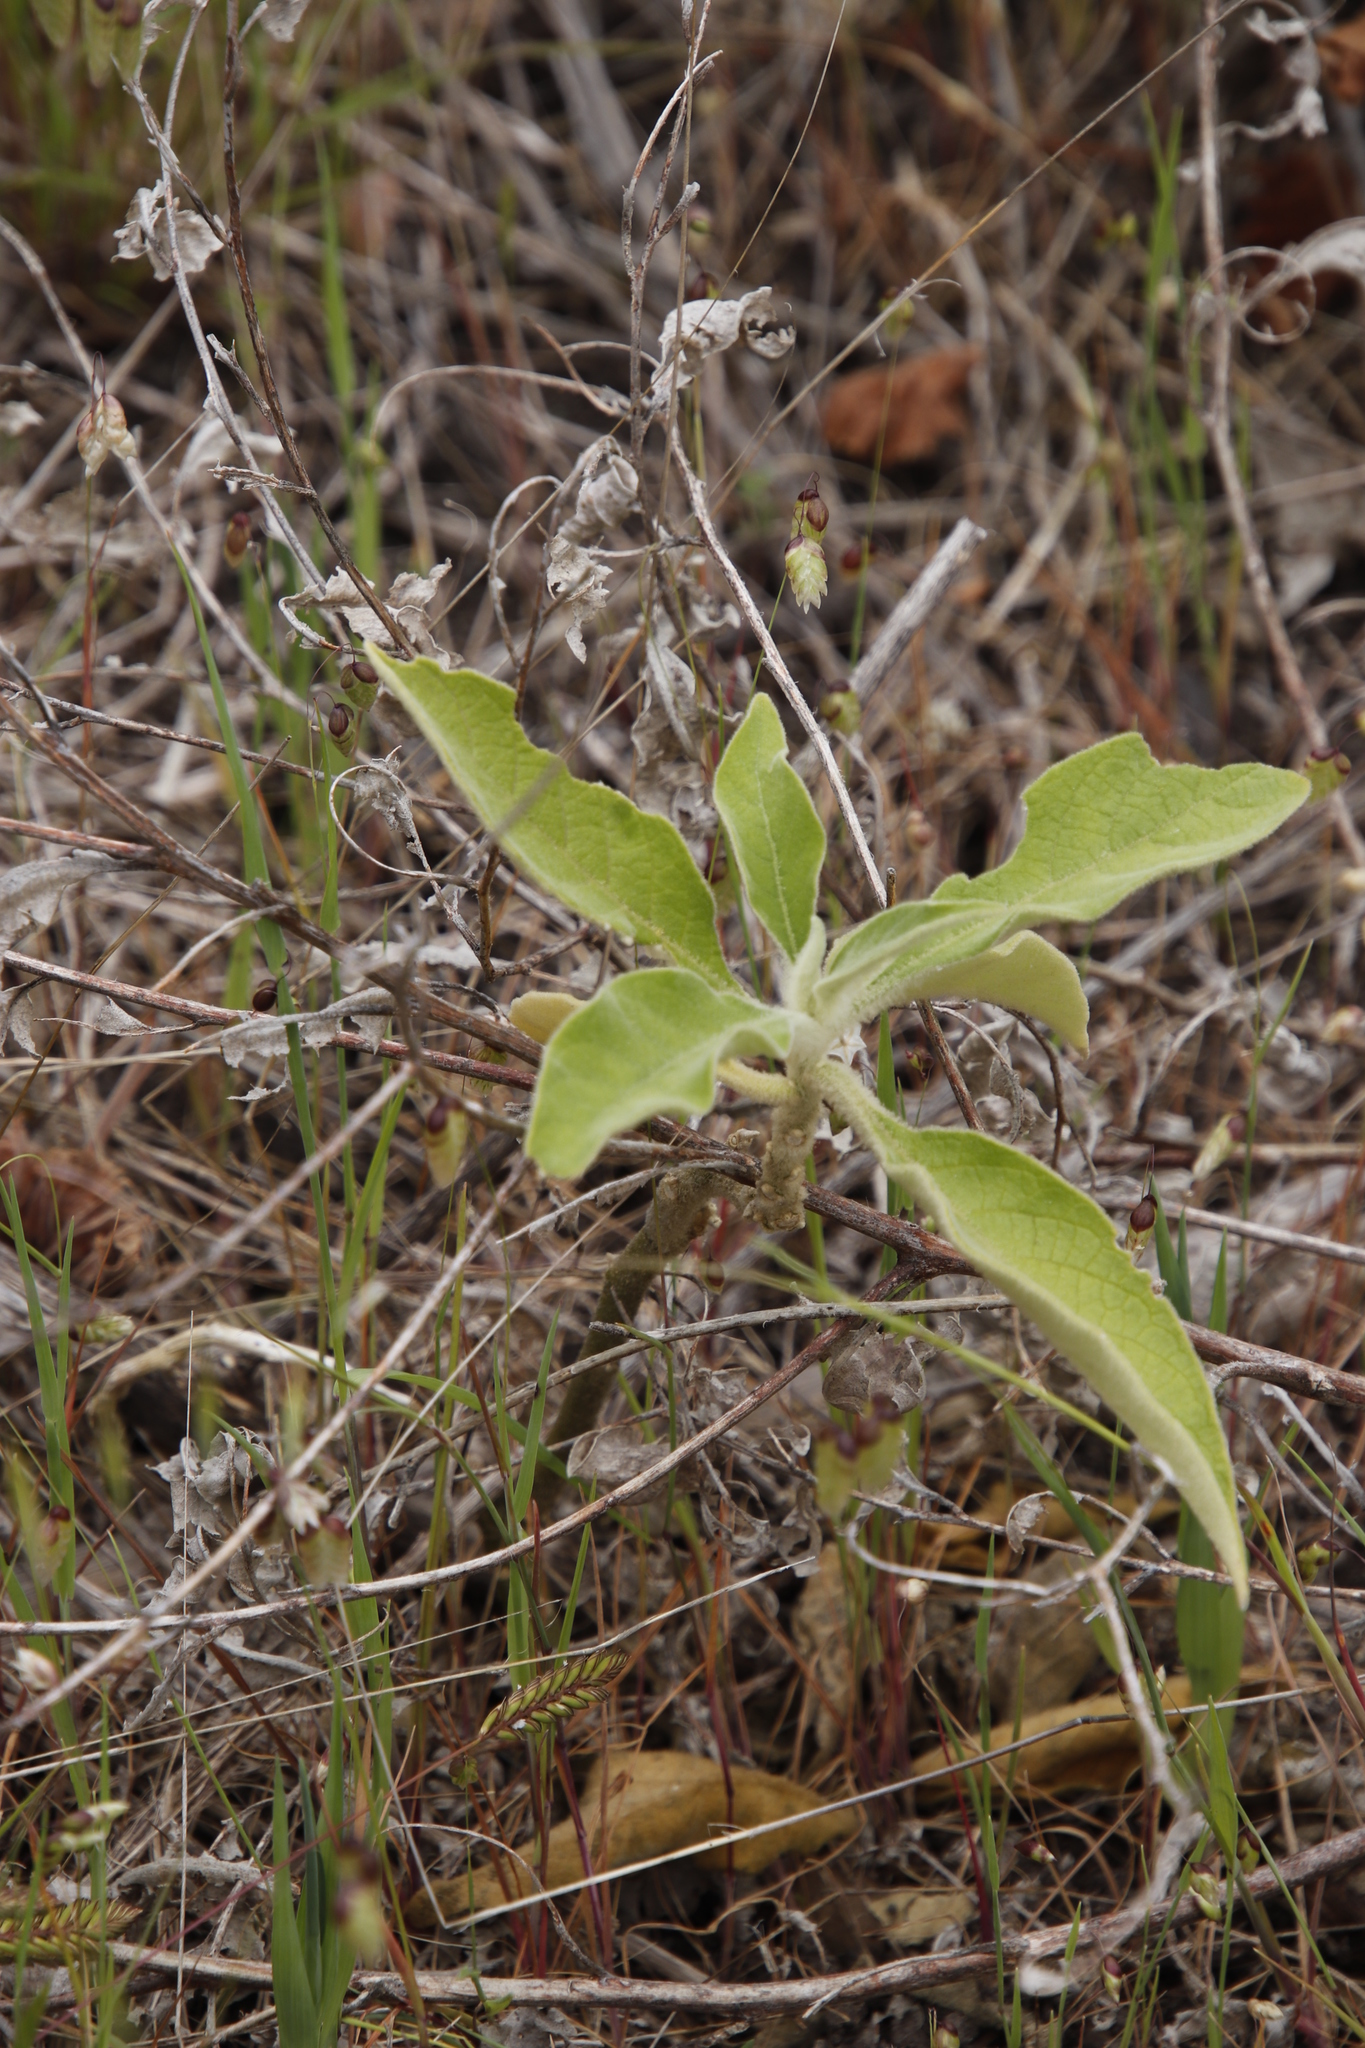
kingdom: Plantae
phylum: Tracheophyta
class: Magnoliopsida
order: Solanales
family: Solanaceae
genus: Solanum
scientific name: Solanum mauritianum
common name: Earleaf nightshade
